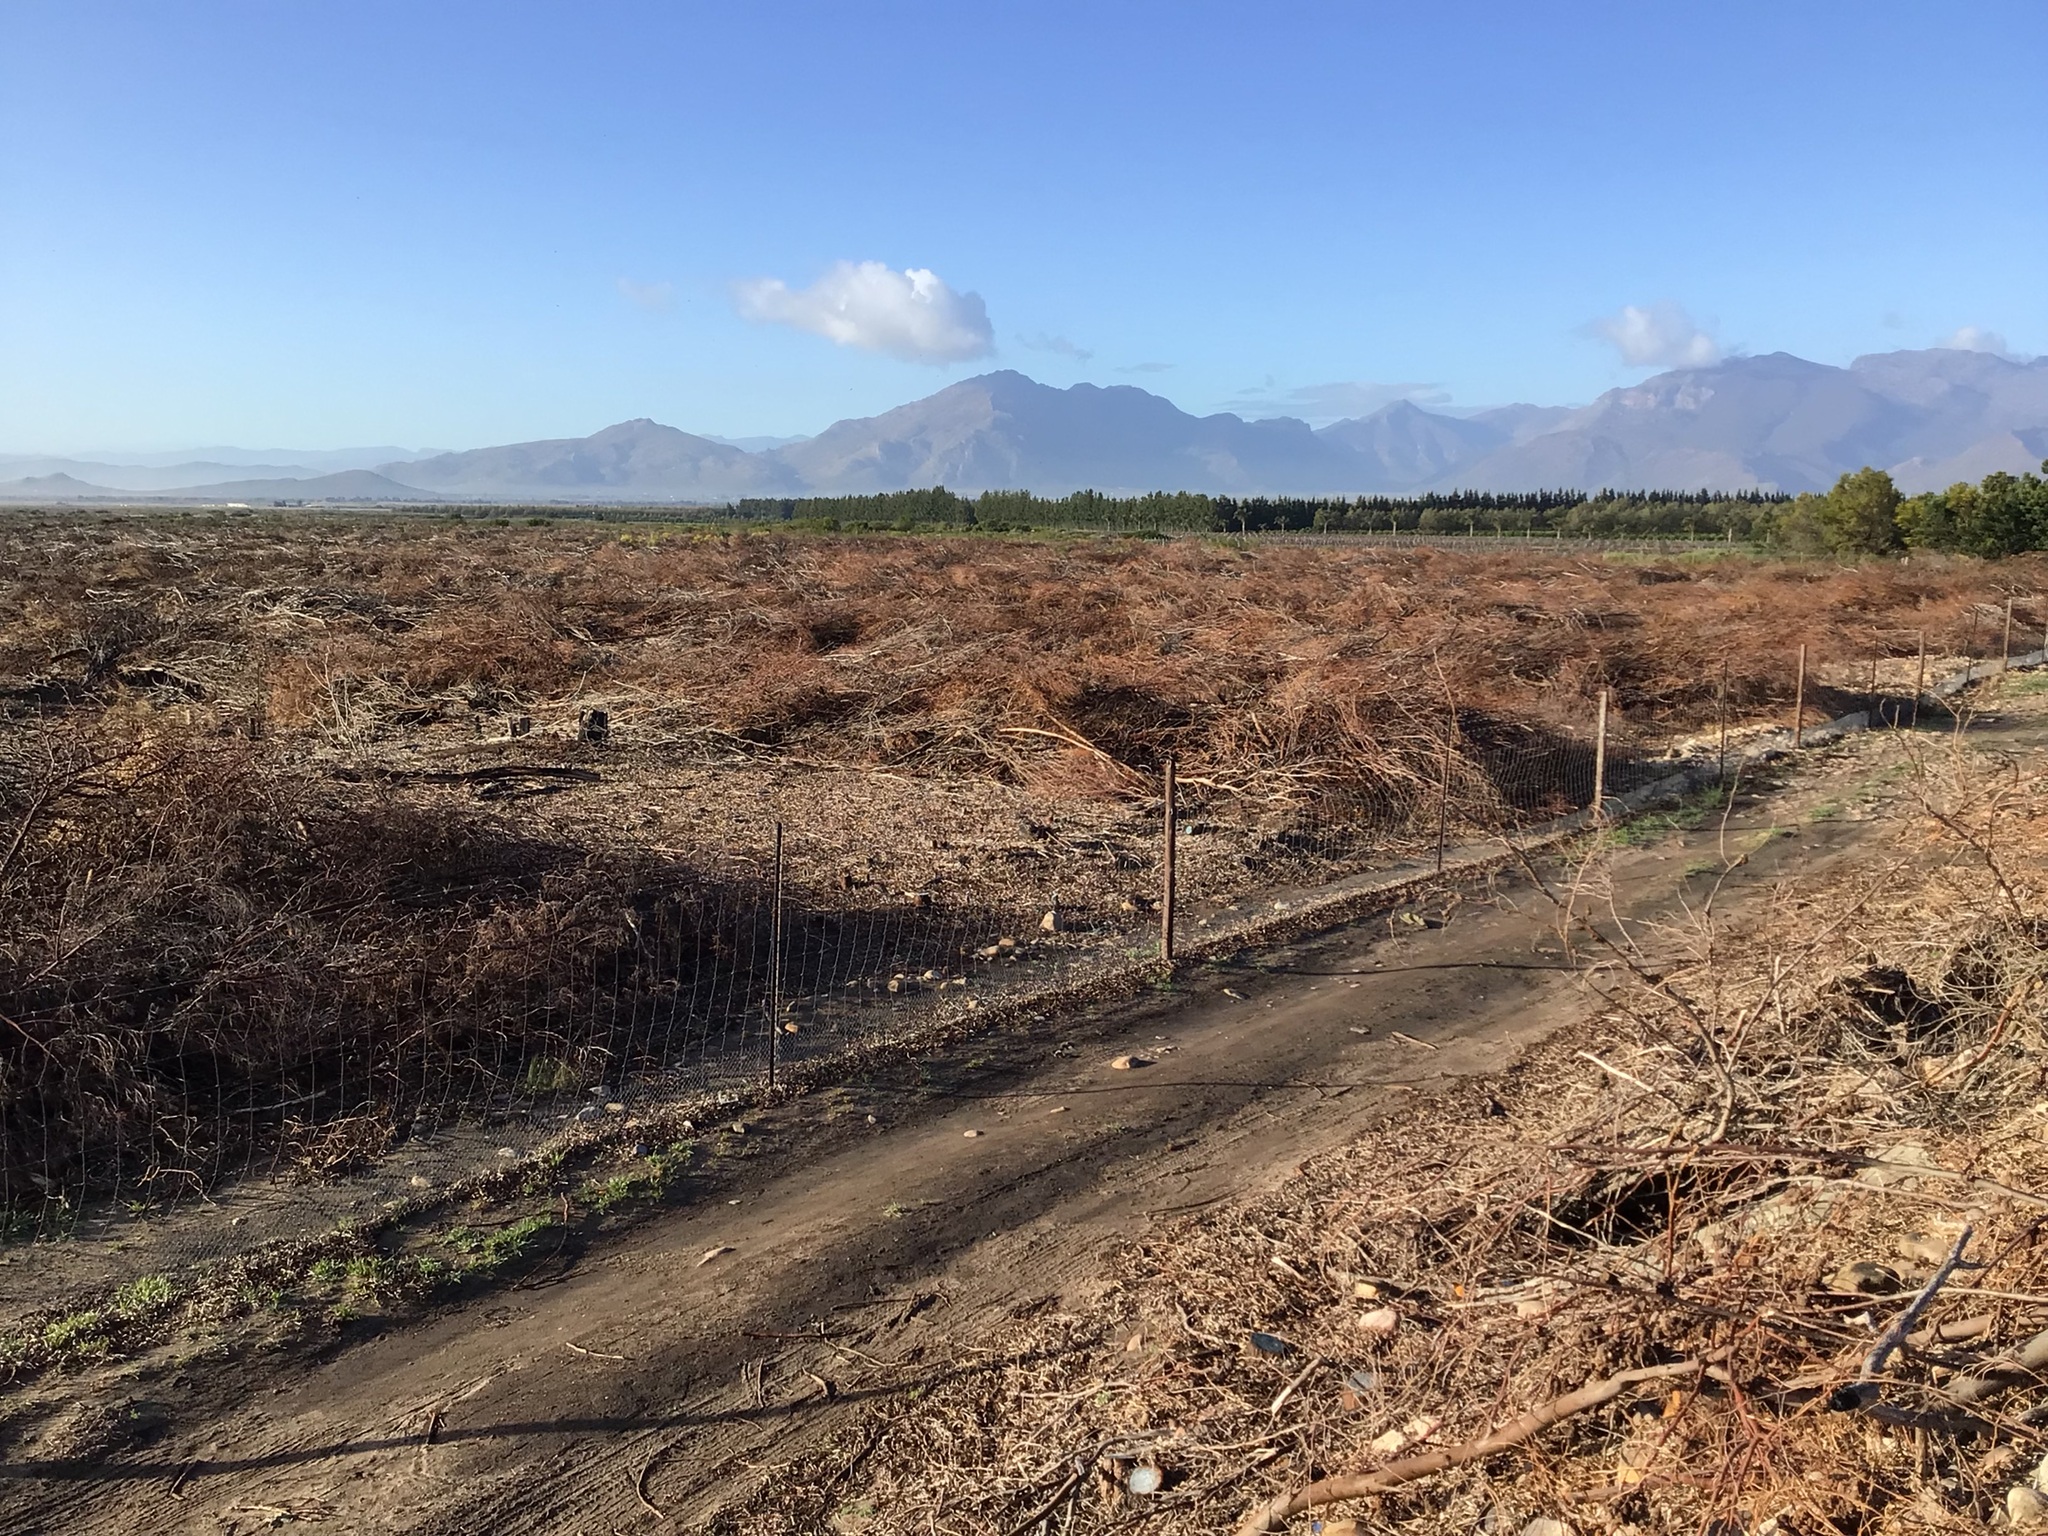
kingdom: Plantae
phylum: Tracheophyta
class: Magnoliopsida
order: Fabales
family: Fabaceae
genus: Acacia
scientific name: Acacia saligna
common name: Orange wattle
